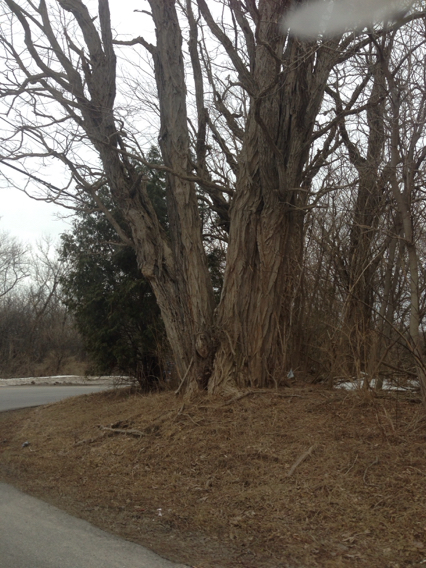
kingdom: Plantae
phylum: Tracheophyta
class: Magnoliopsida
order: Fabales
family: Fabaceae
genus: Robinia
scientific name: Robinia pseudoacacia
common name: Black locust
